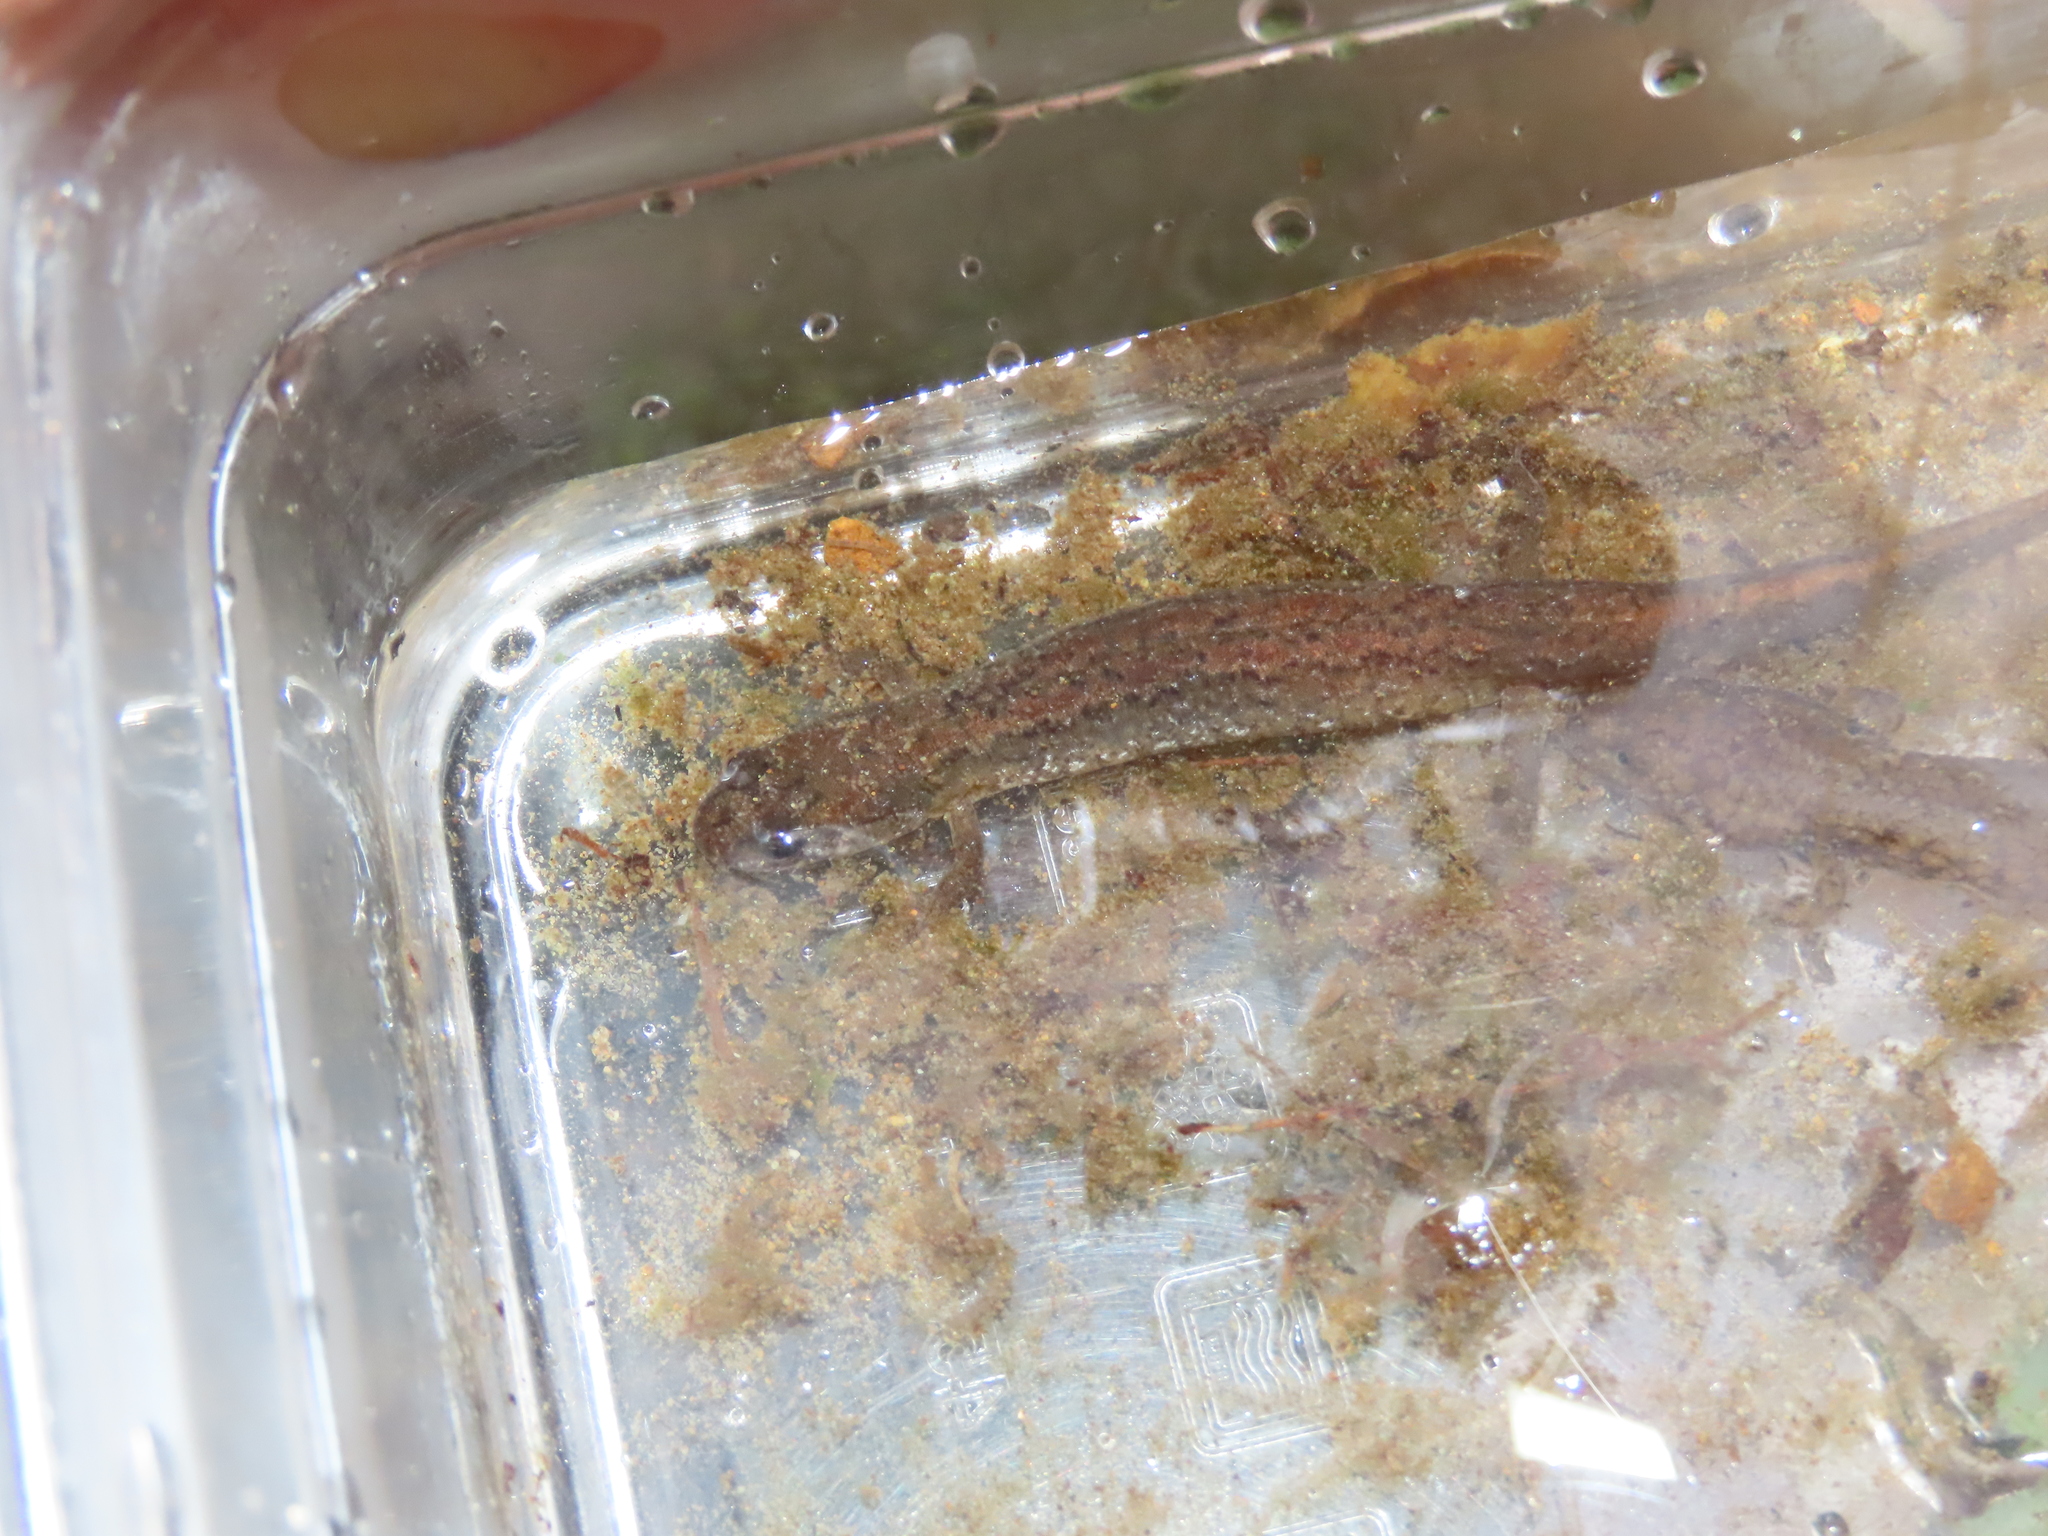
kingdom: Animalia
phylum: Chordata
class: Amphibia
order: Caudata
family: Plethodontidae
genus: Desmognathus
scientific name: Desmognathus fuscus
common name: Northern dusky salamander
